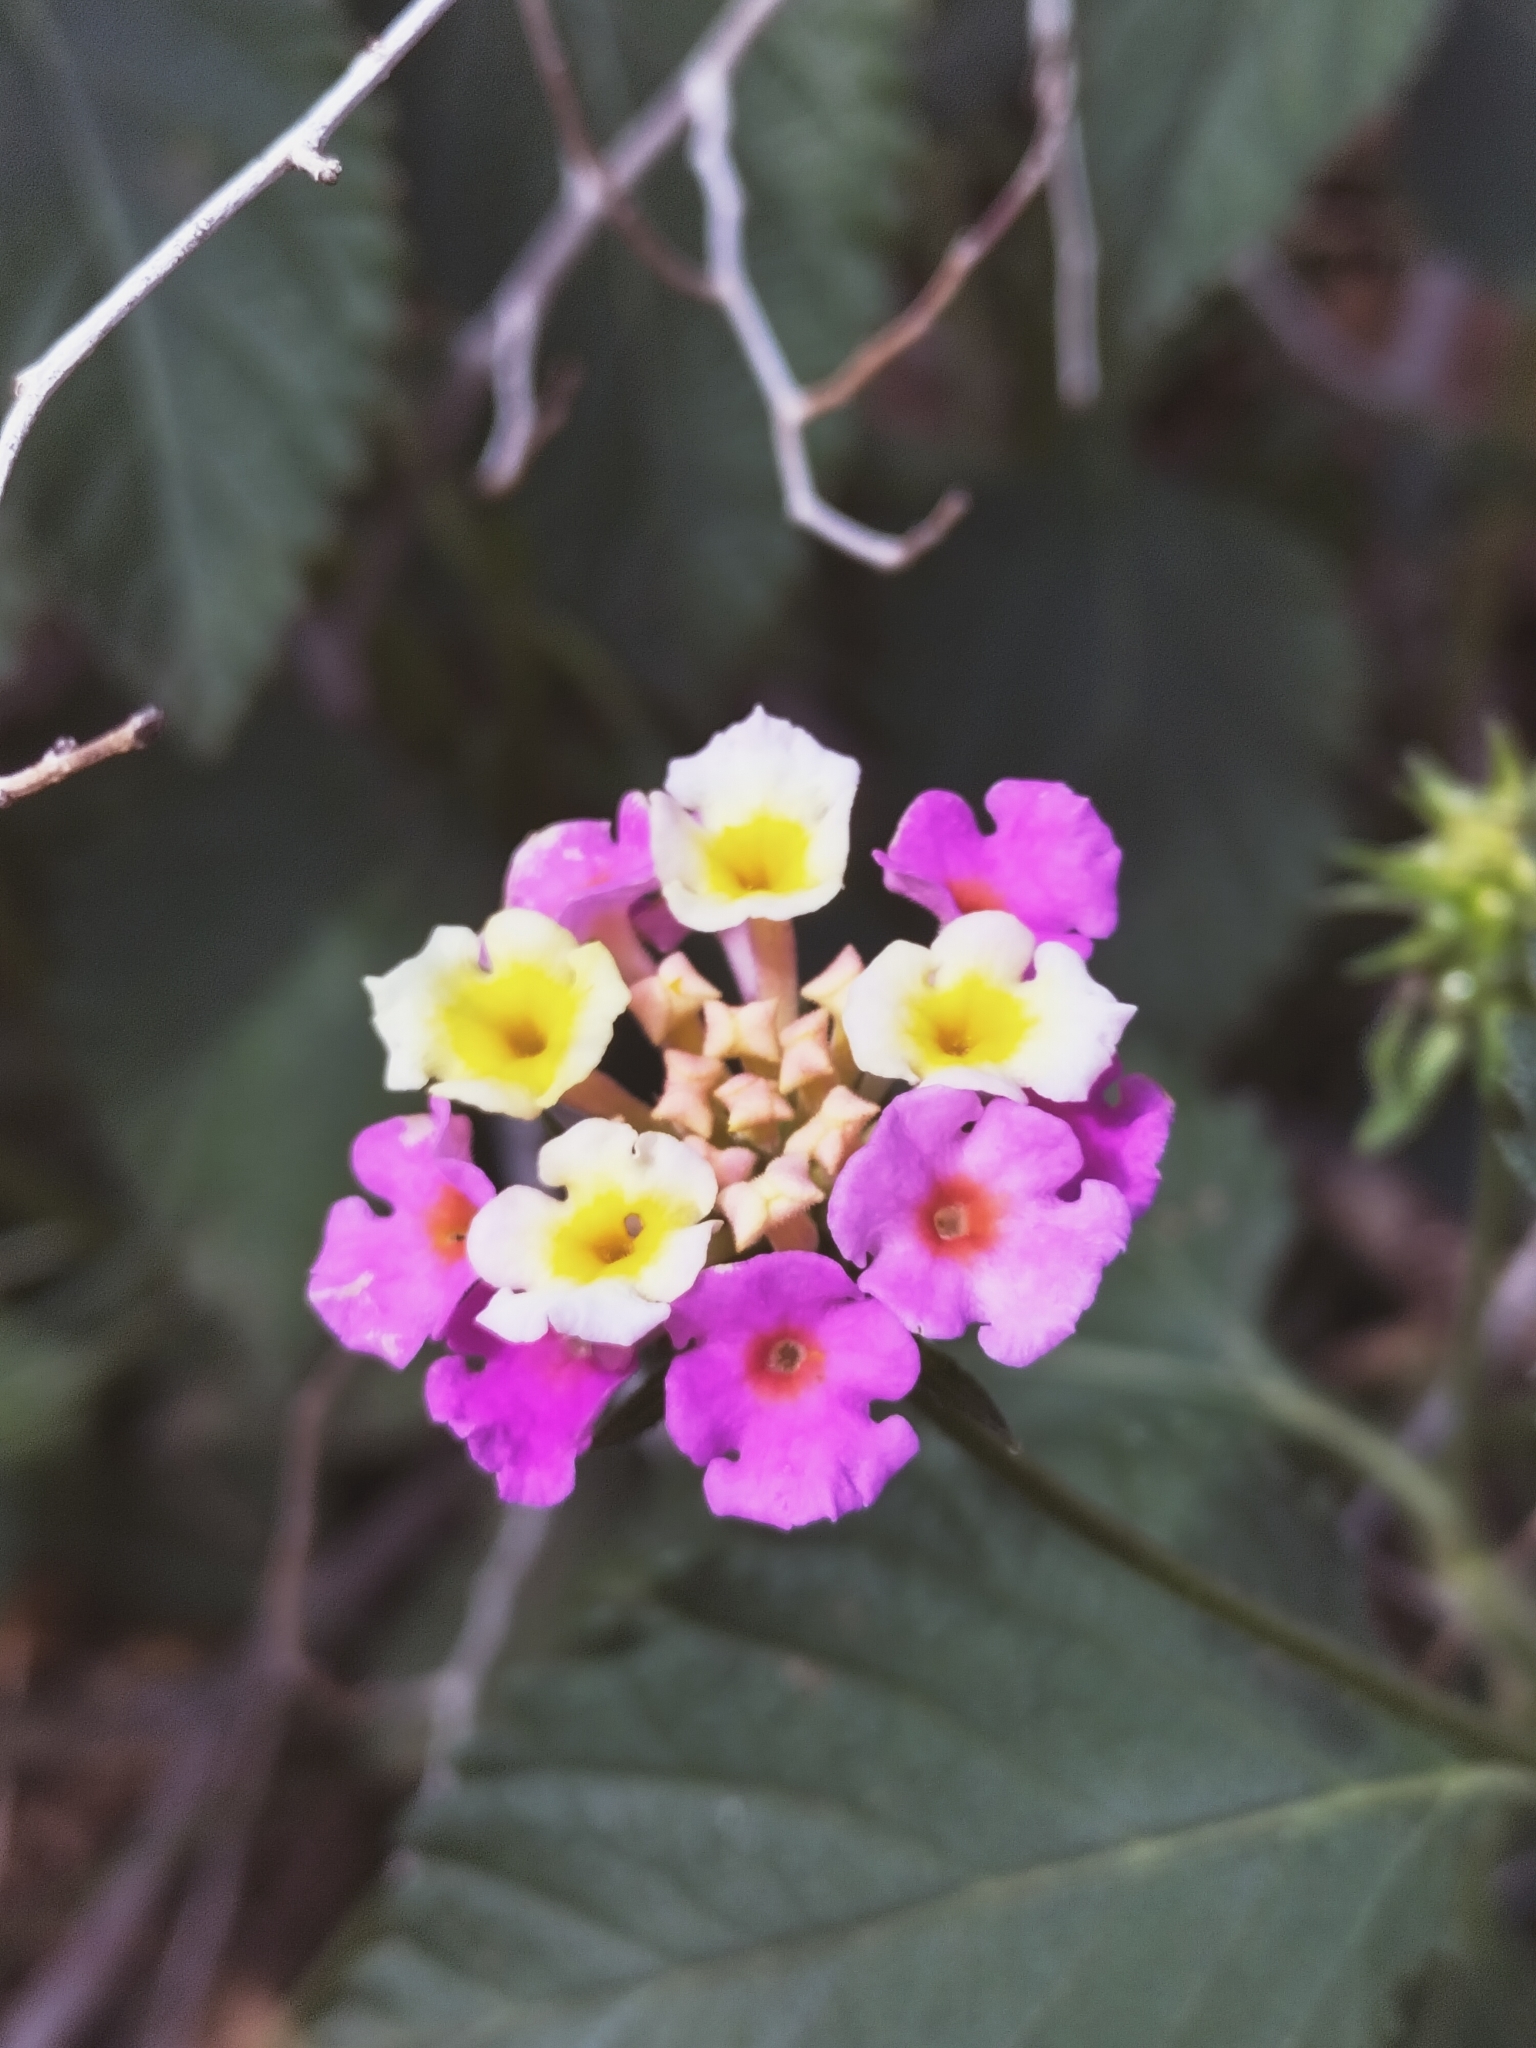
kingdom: Plantae
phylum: Tracheophyta
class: Magnoliopsida
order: Lamiales
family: Verbenaceae
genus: Lantana
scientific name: Lantana camara
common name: Lantana
